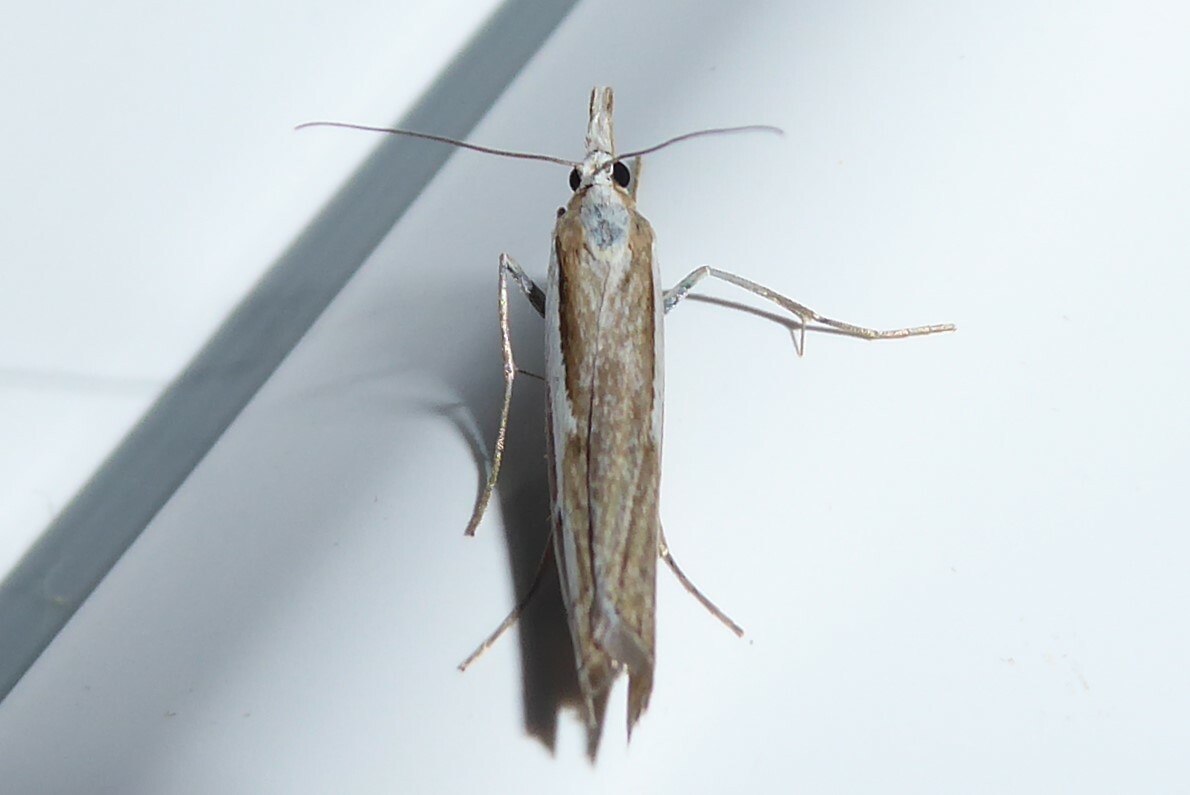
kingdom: Animalia
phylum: Arthropoda
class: Insecta
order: Lepidoptera
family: Crambidae
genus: Orocrambus
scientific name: Orocrambus vittellus
